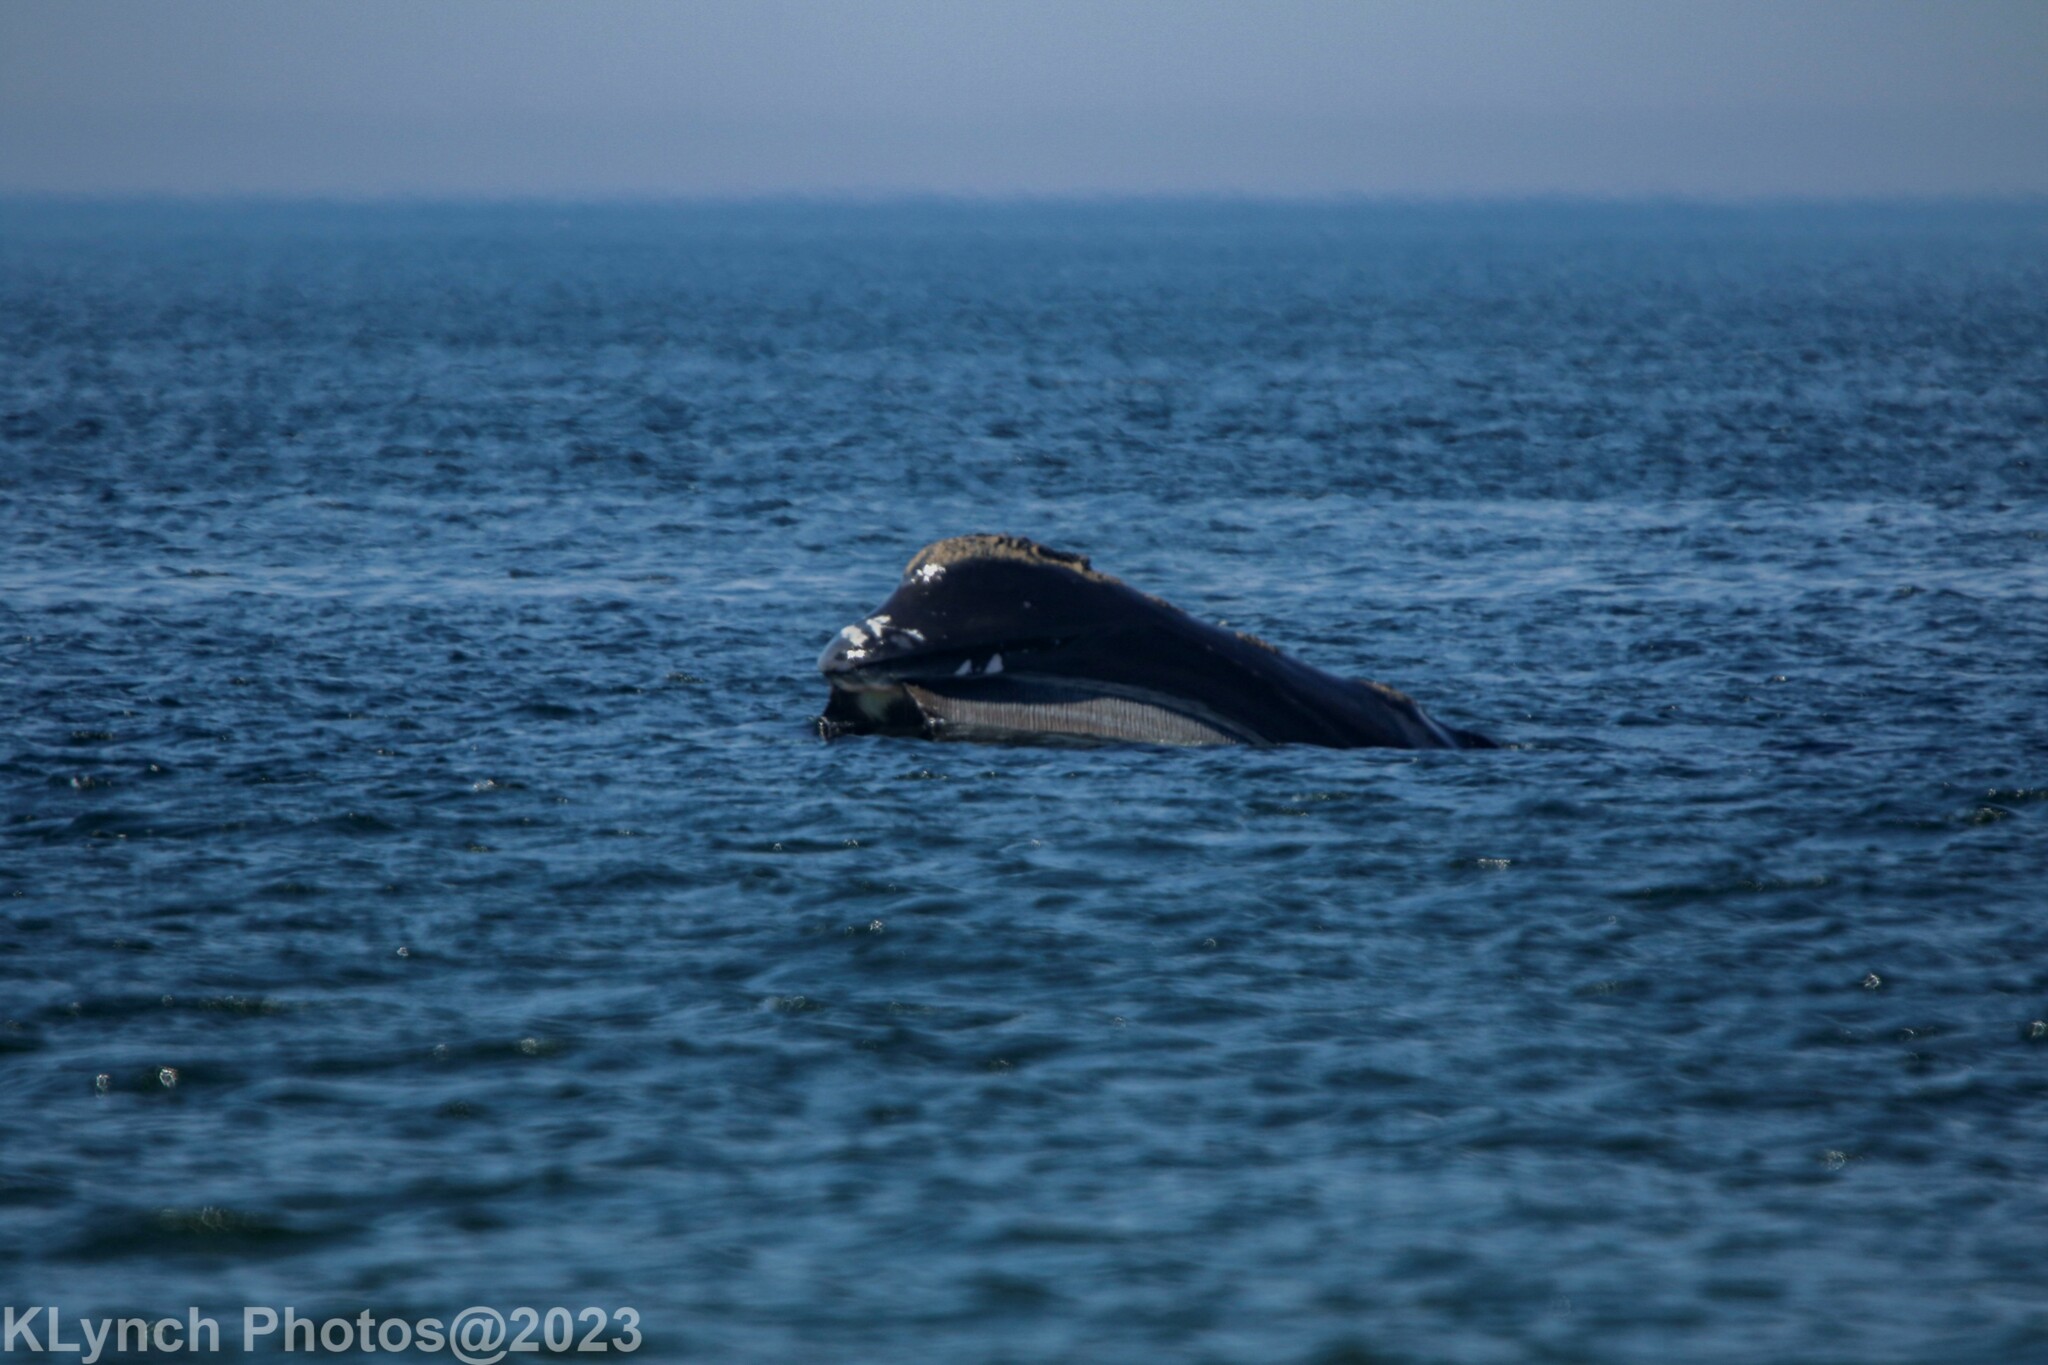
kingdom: Animalia
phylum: Chordata
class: Mammalia
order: Cetacea
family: Balaenidae
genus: Eubalaena
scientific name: Eubalaena glacialis
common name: North atlantic right whale
